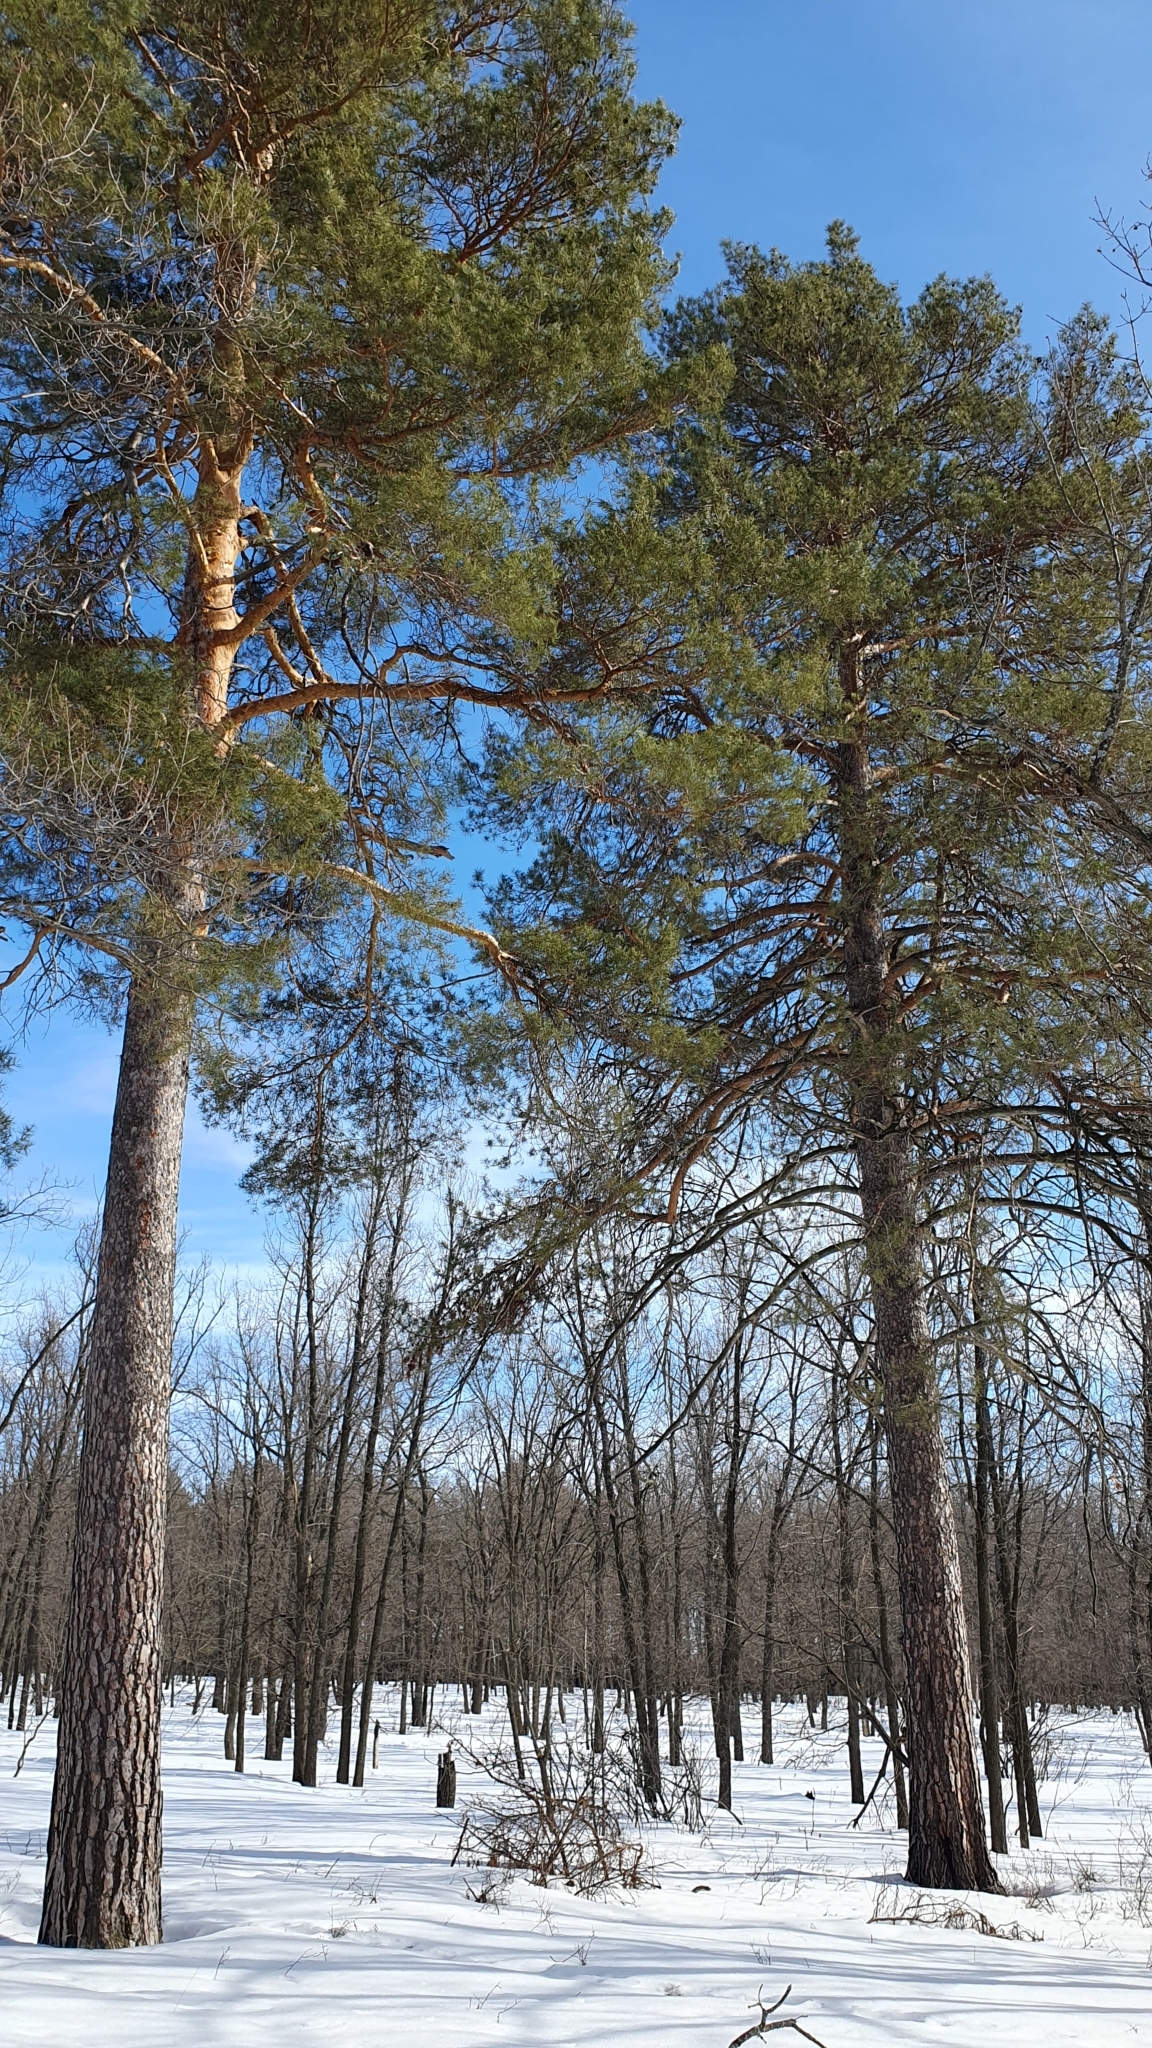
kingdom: Plantae
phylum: Tracheophyta
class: Pinopsida
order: Pinales
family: Pinaceae
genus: Pinus
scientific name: Pinus sylvestris
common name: Scots pine
